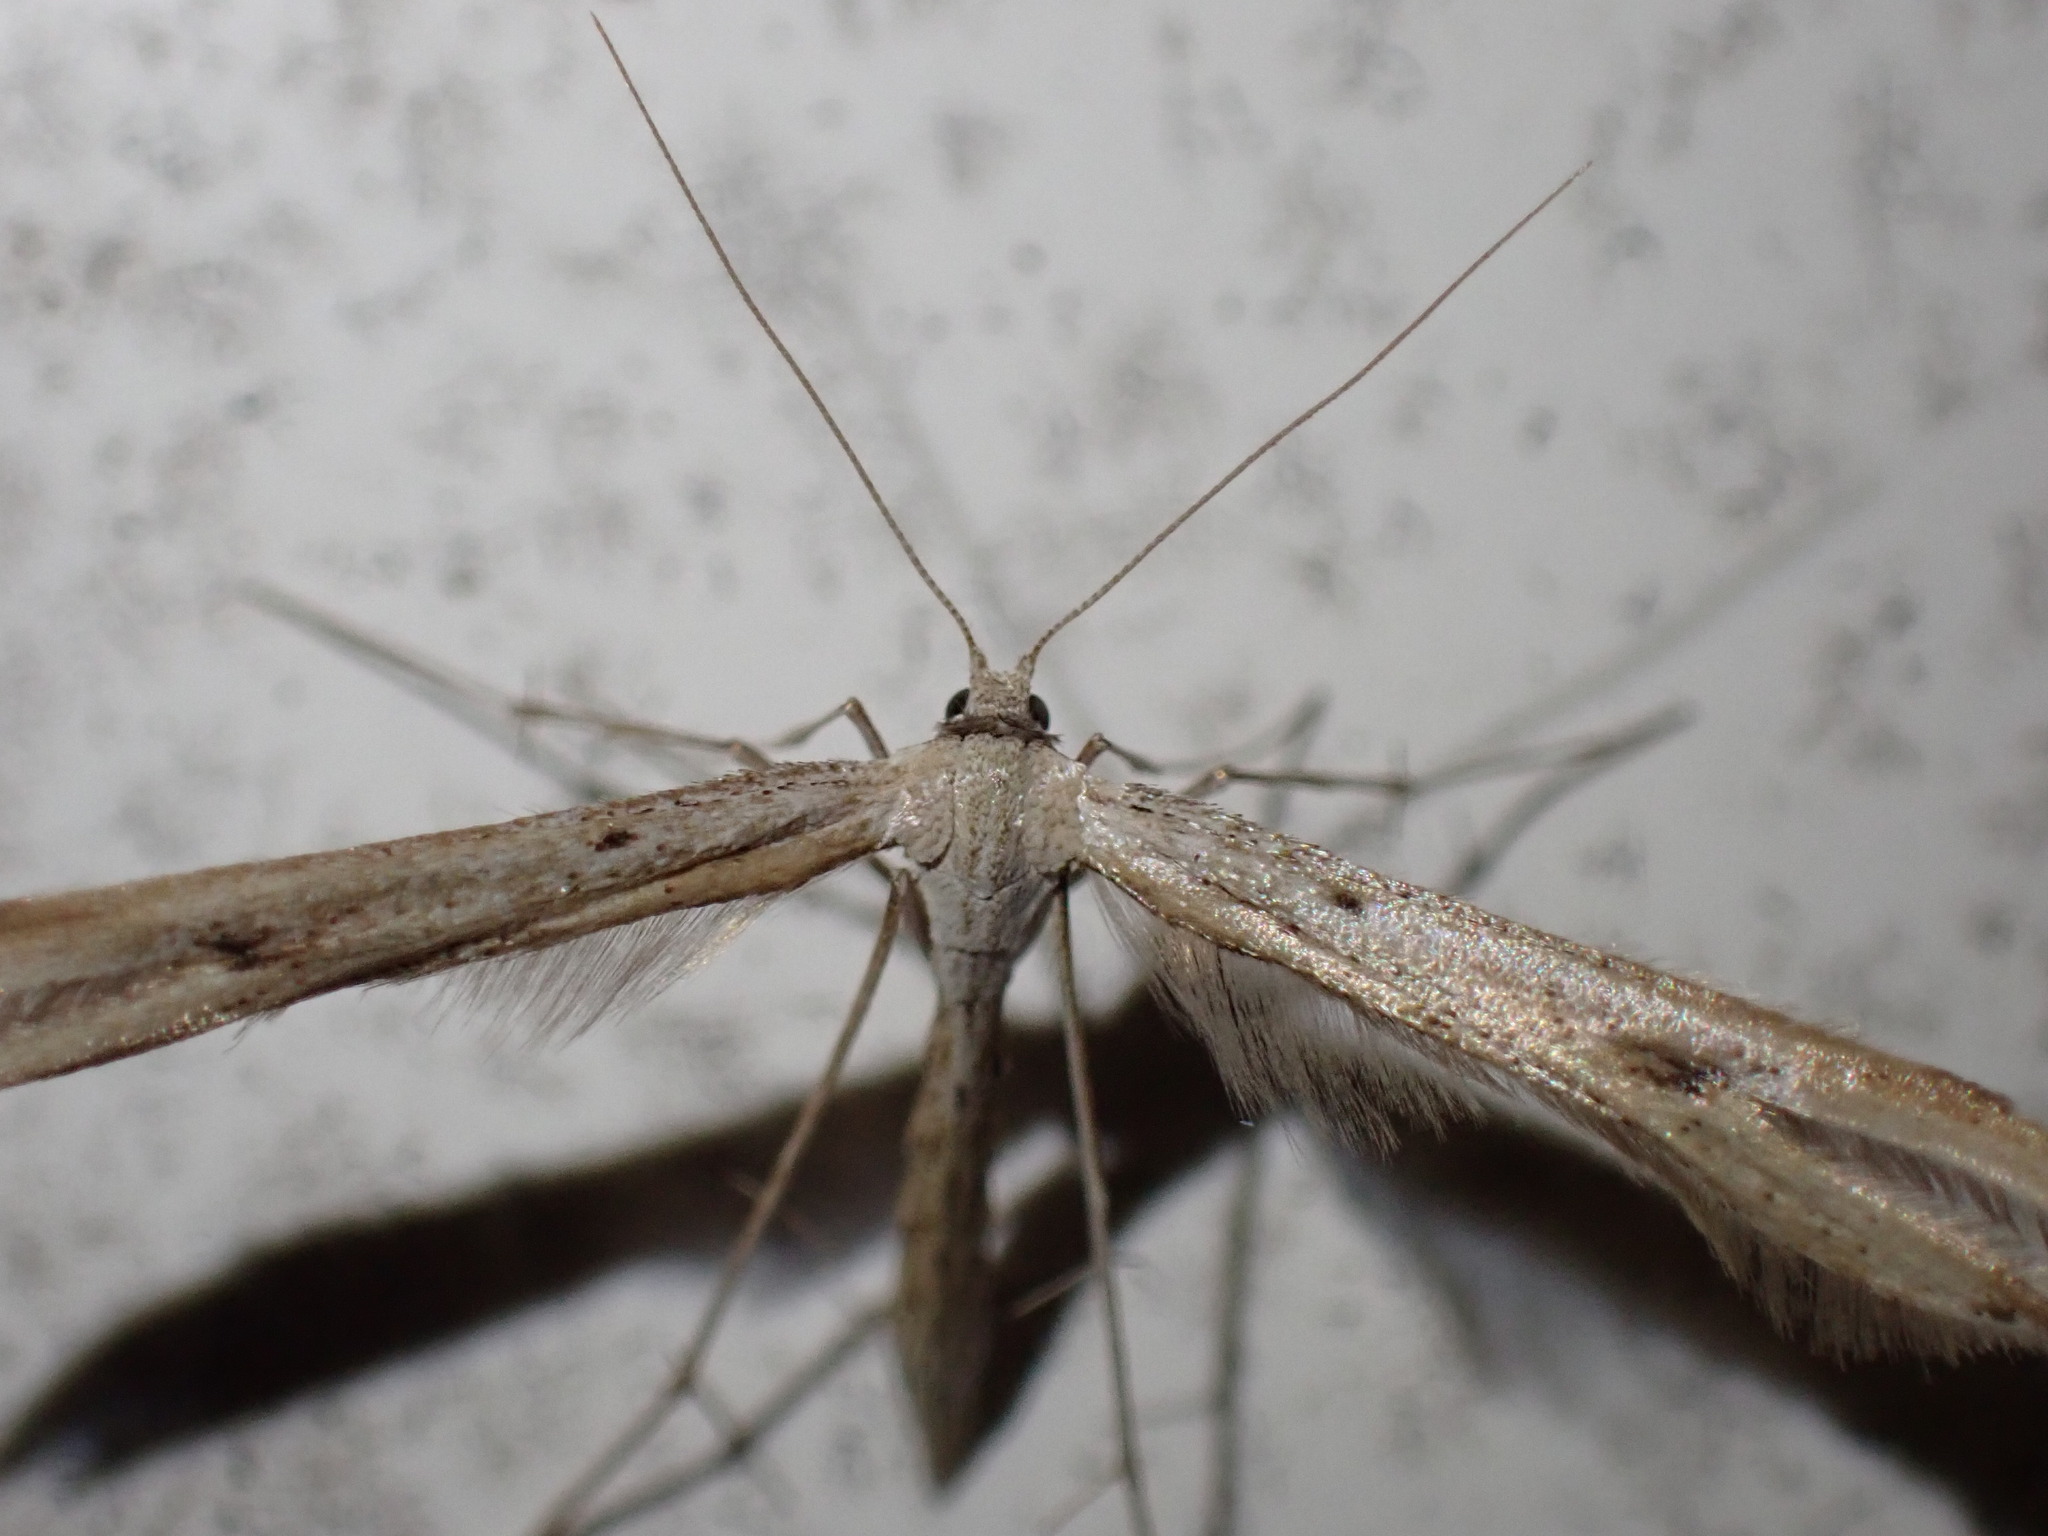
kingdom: Animalia
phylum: Arthropoda
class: Insecta
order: Lepidoptera
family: Pterophoridae
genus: Emmelina
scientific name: Emmelina monodactyla
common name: Common plume
